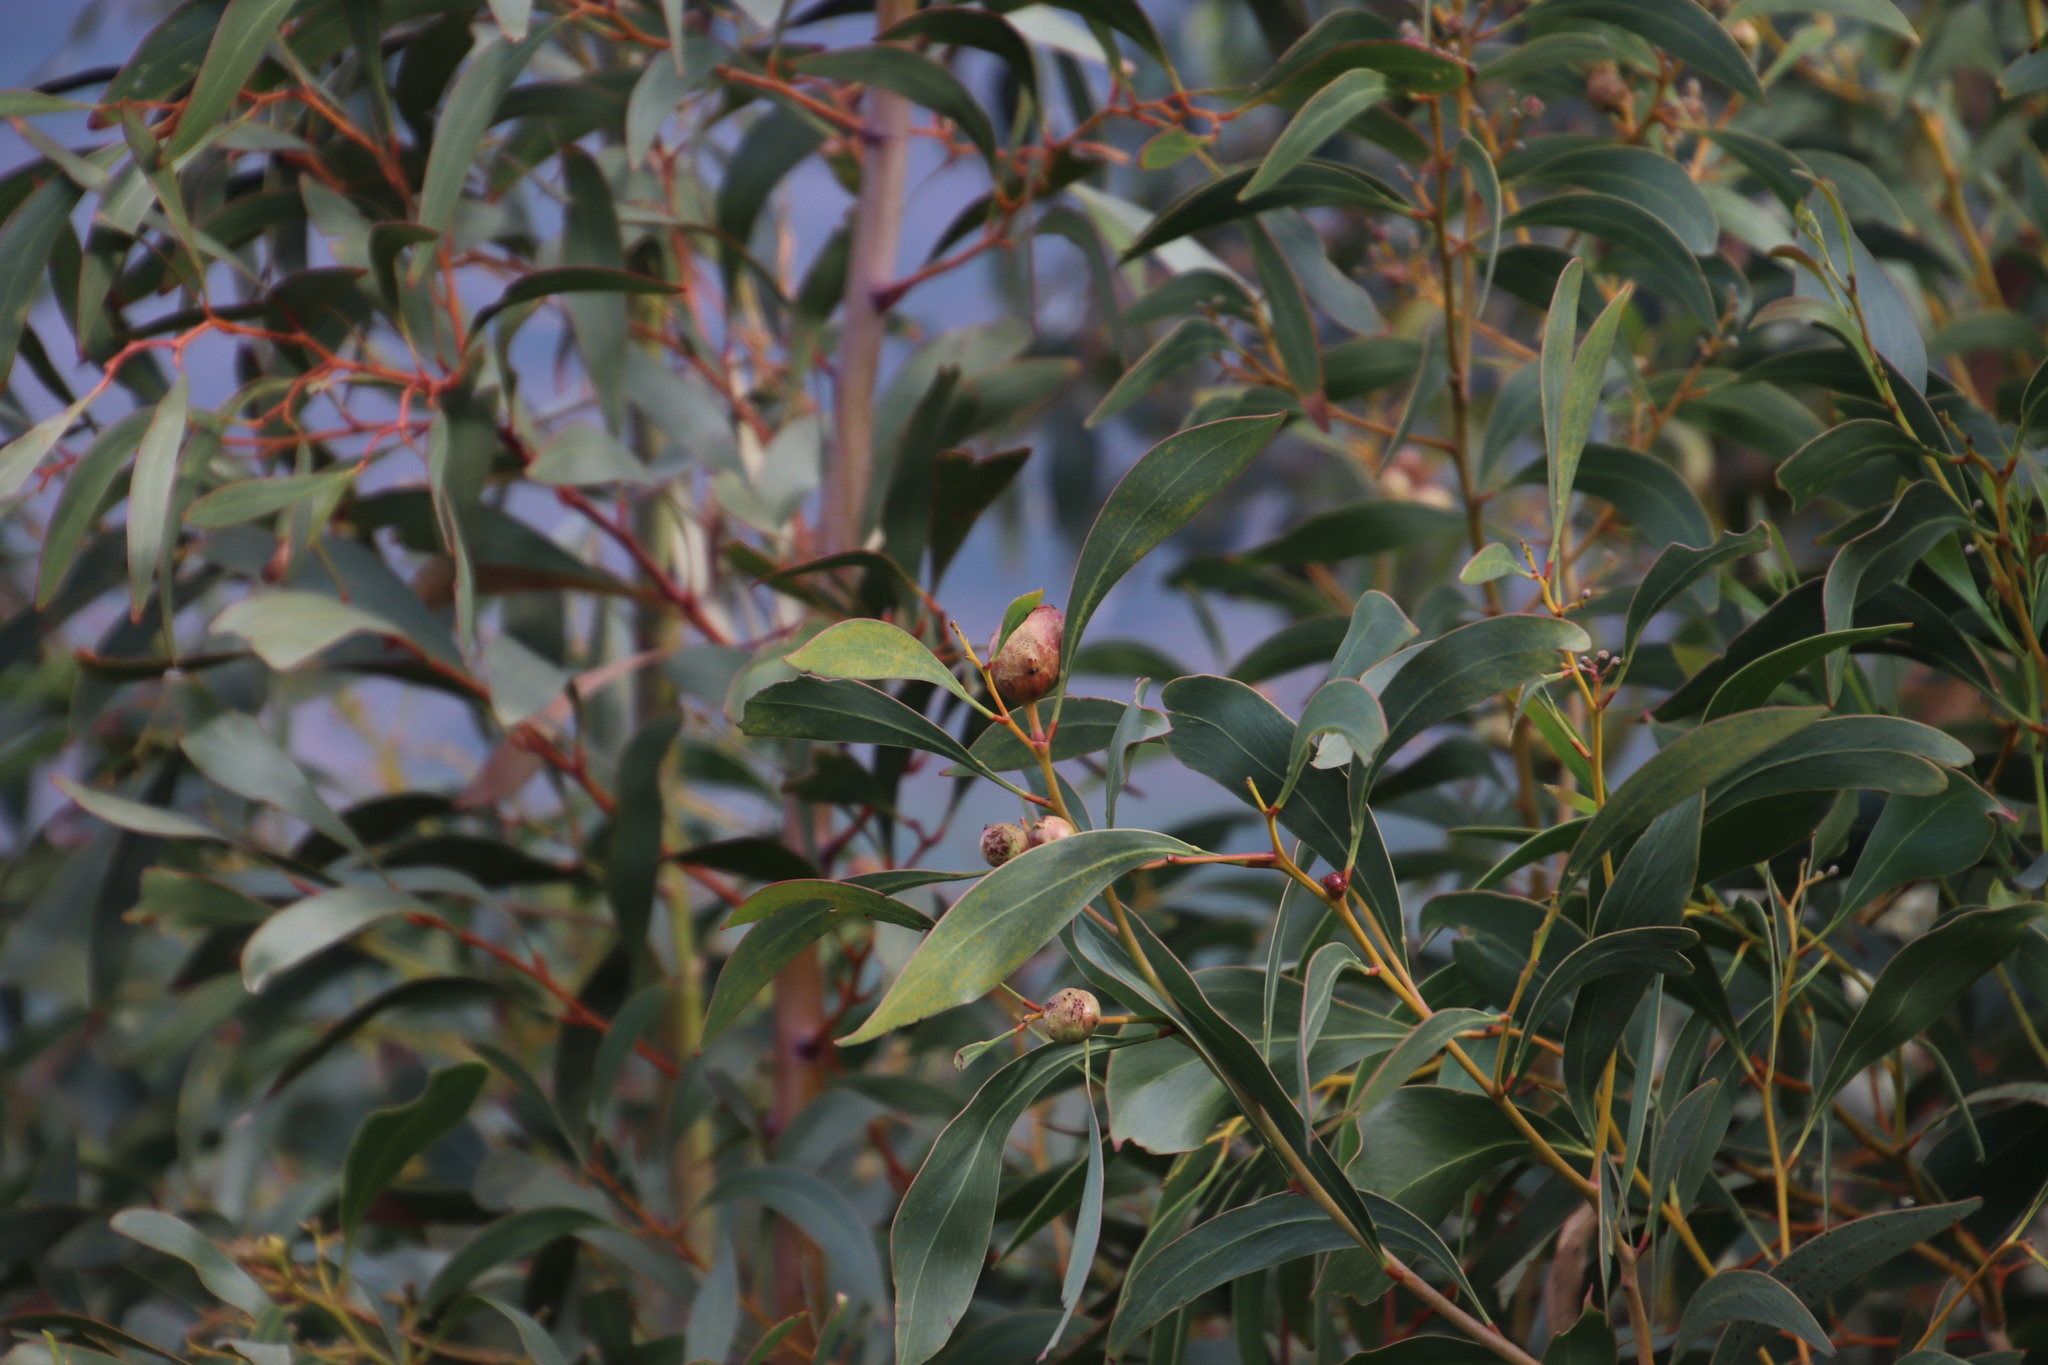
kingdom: Animalia
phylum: Arthropoda
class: Insecta
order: Hymenoptera
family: Pteromalidae
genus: Trichilogaster
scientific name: Trichilogaster signiventris
